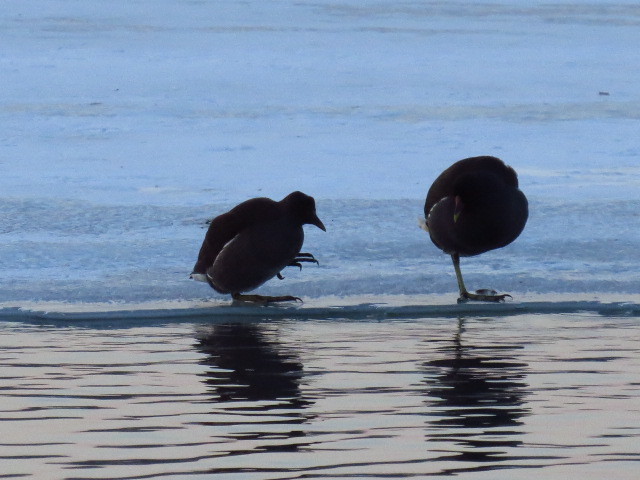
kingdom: Animalia
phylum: Chordata
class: Aves
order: Gruiformes
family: Rallidae
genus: Gallinula
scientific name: Gallinula chloropus
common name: Common moorhen
